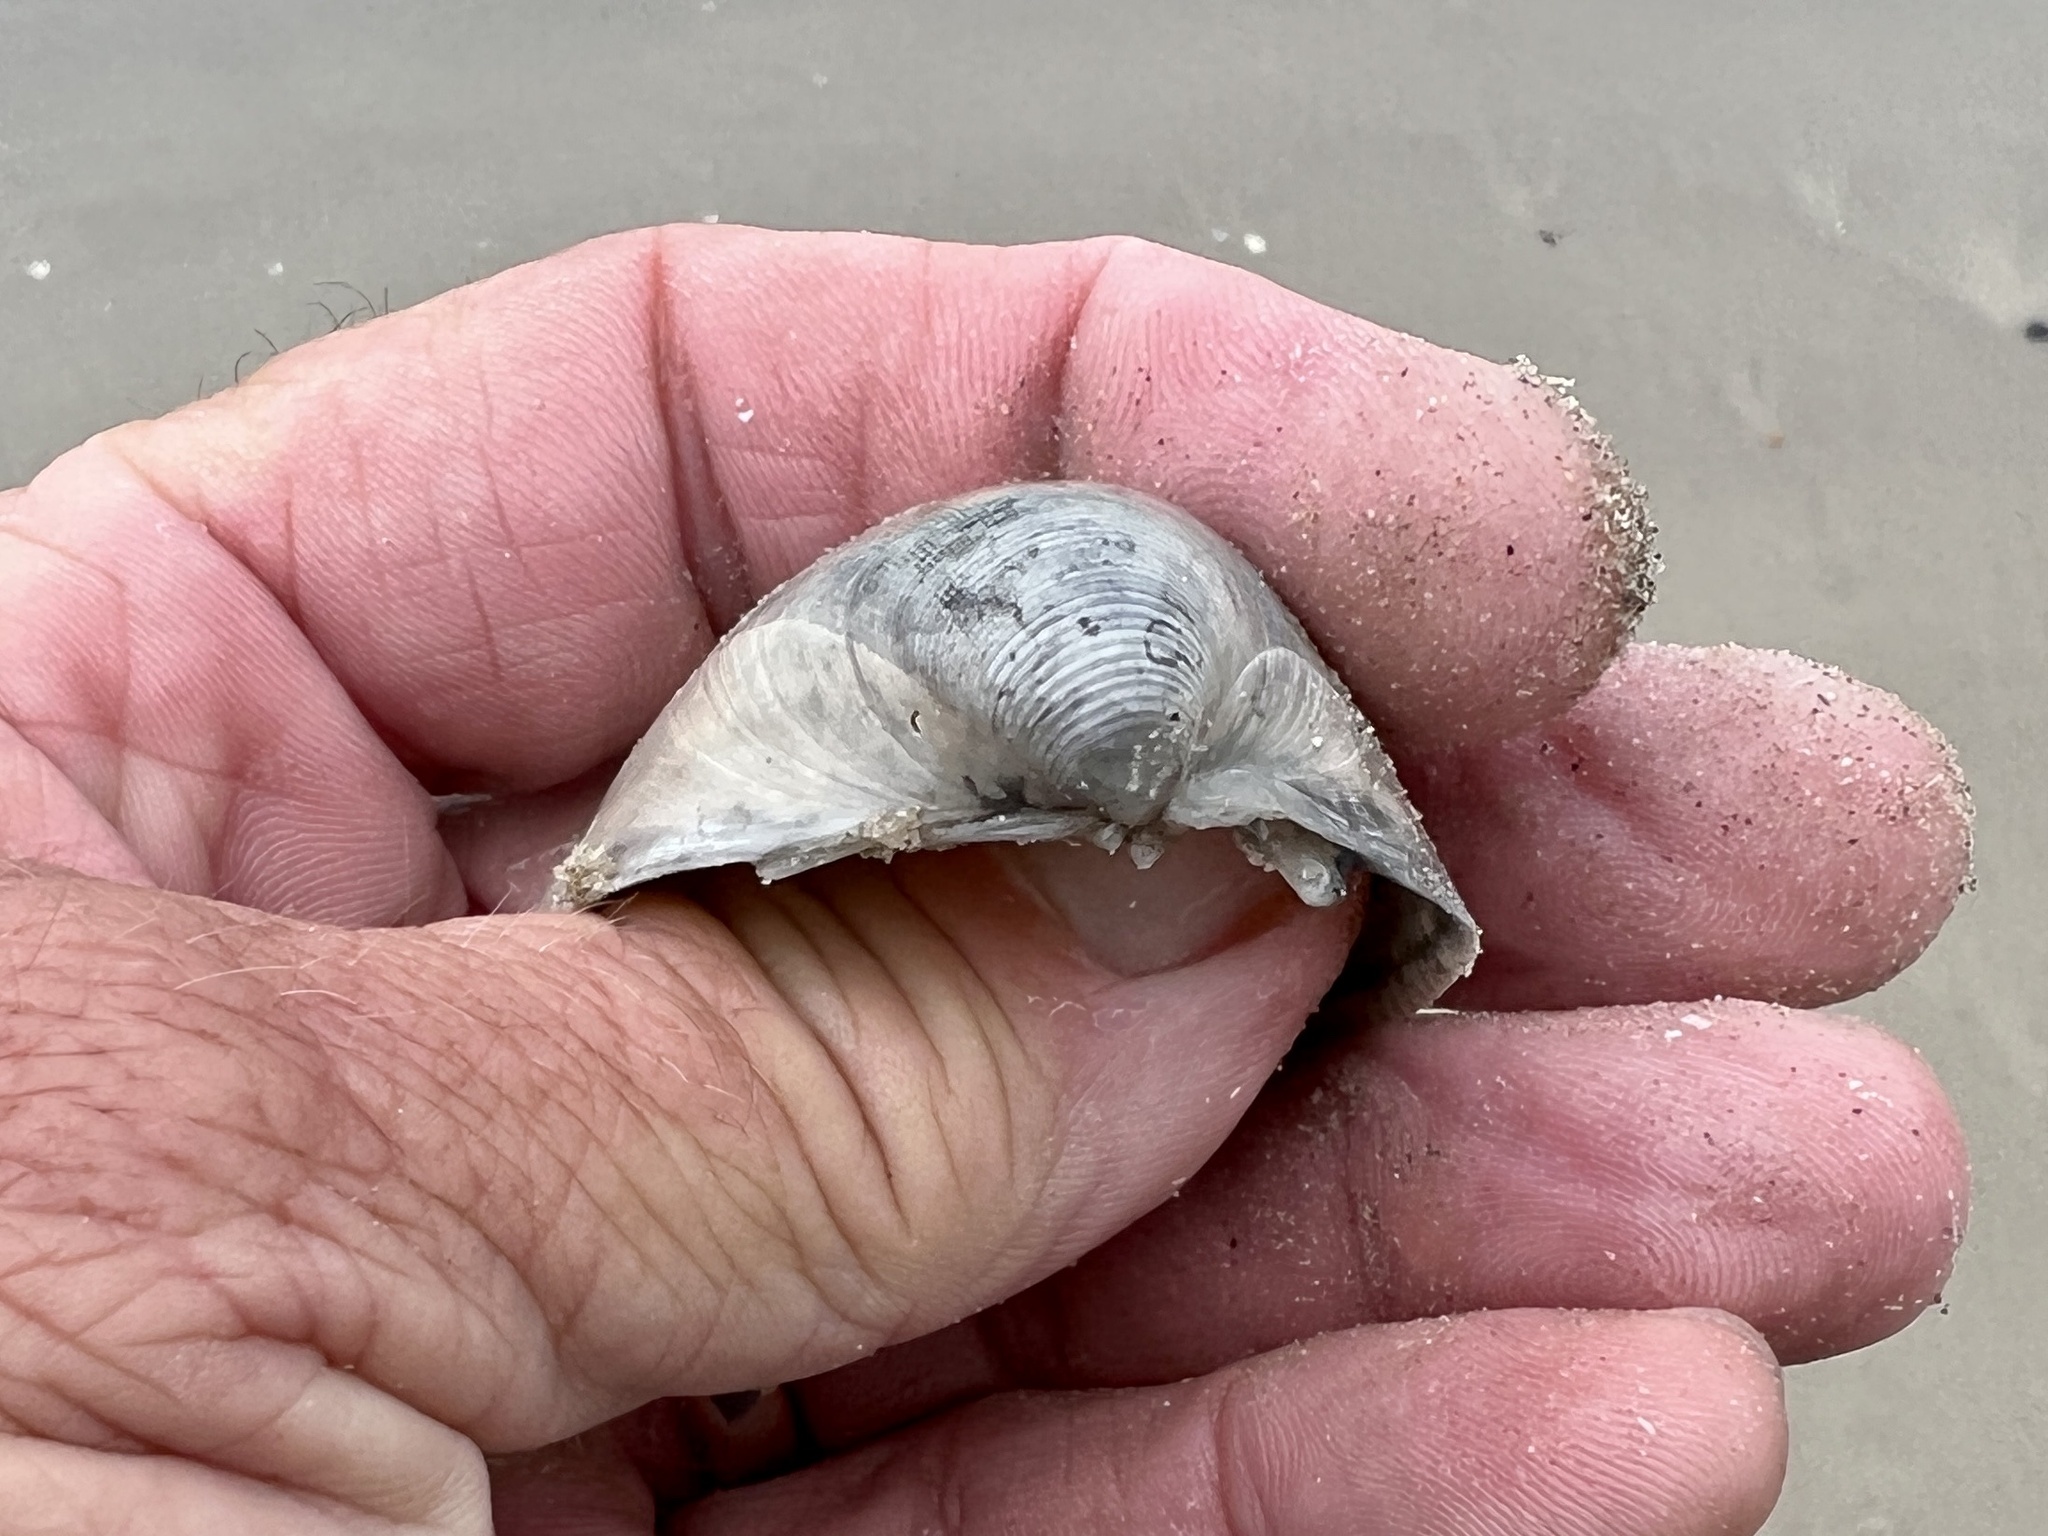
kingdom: Animalia
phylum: Mollusca
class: Bivalvia
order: Cardiida
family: Cardiidae
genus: Laevicardium
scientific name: Laevicardium serratum
